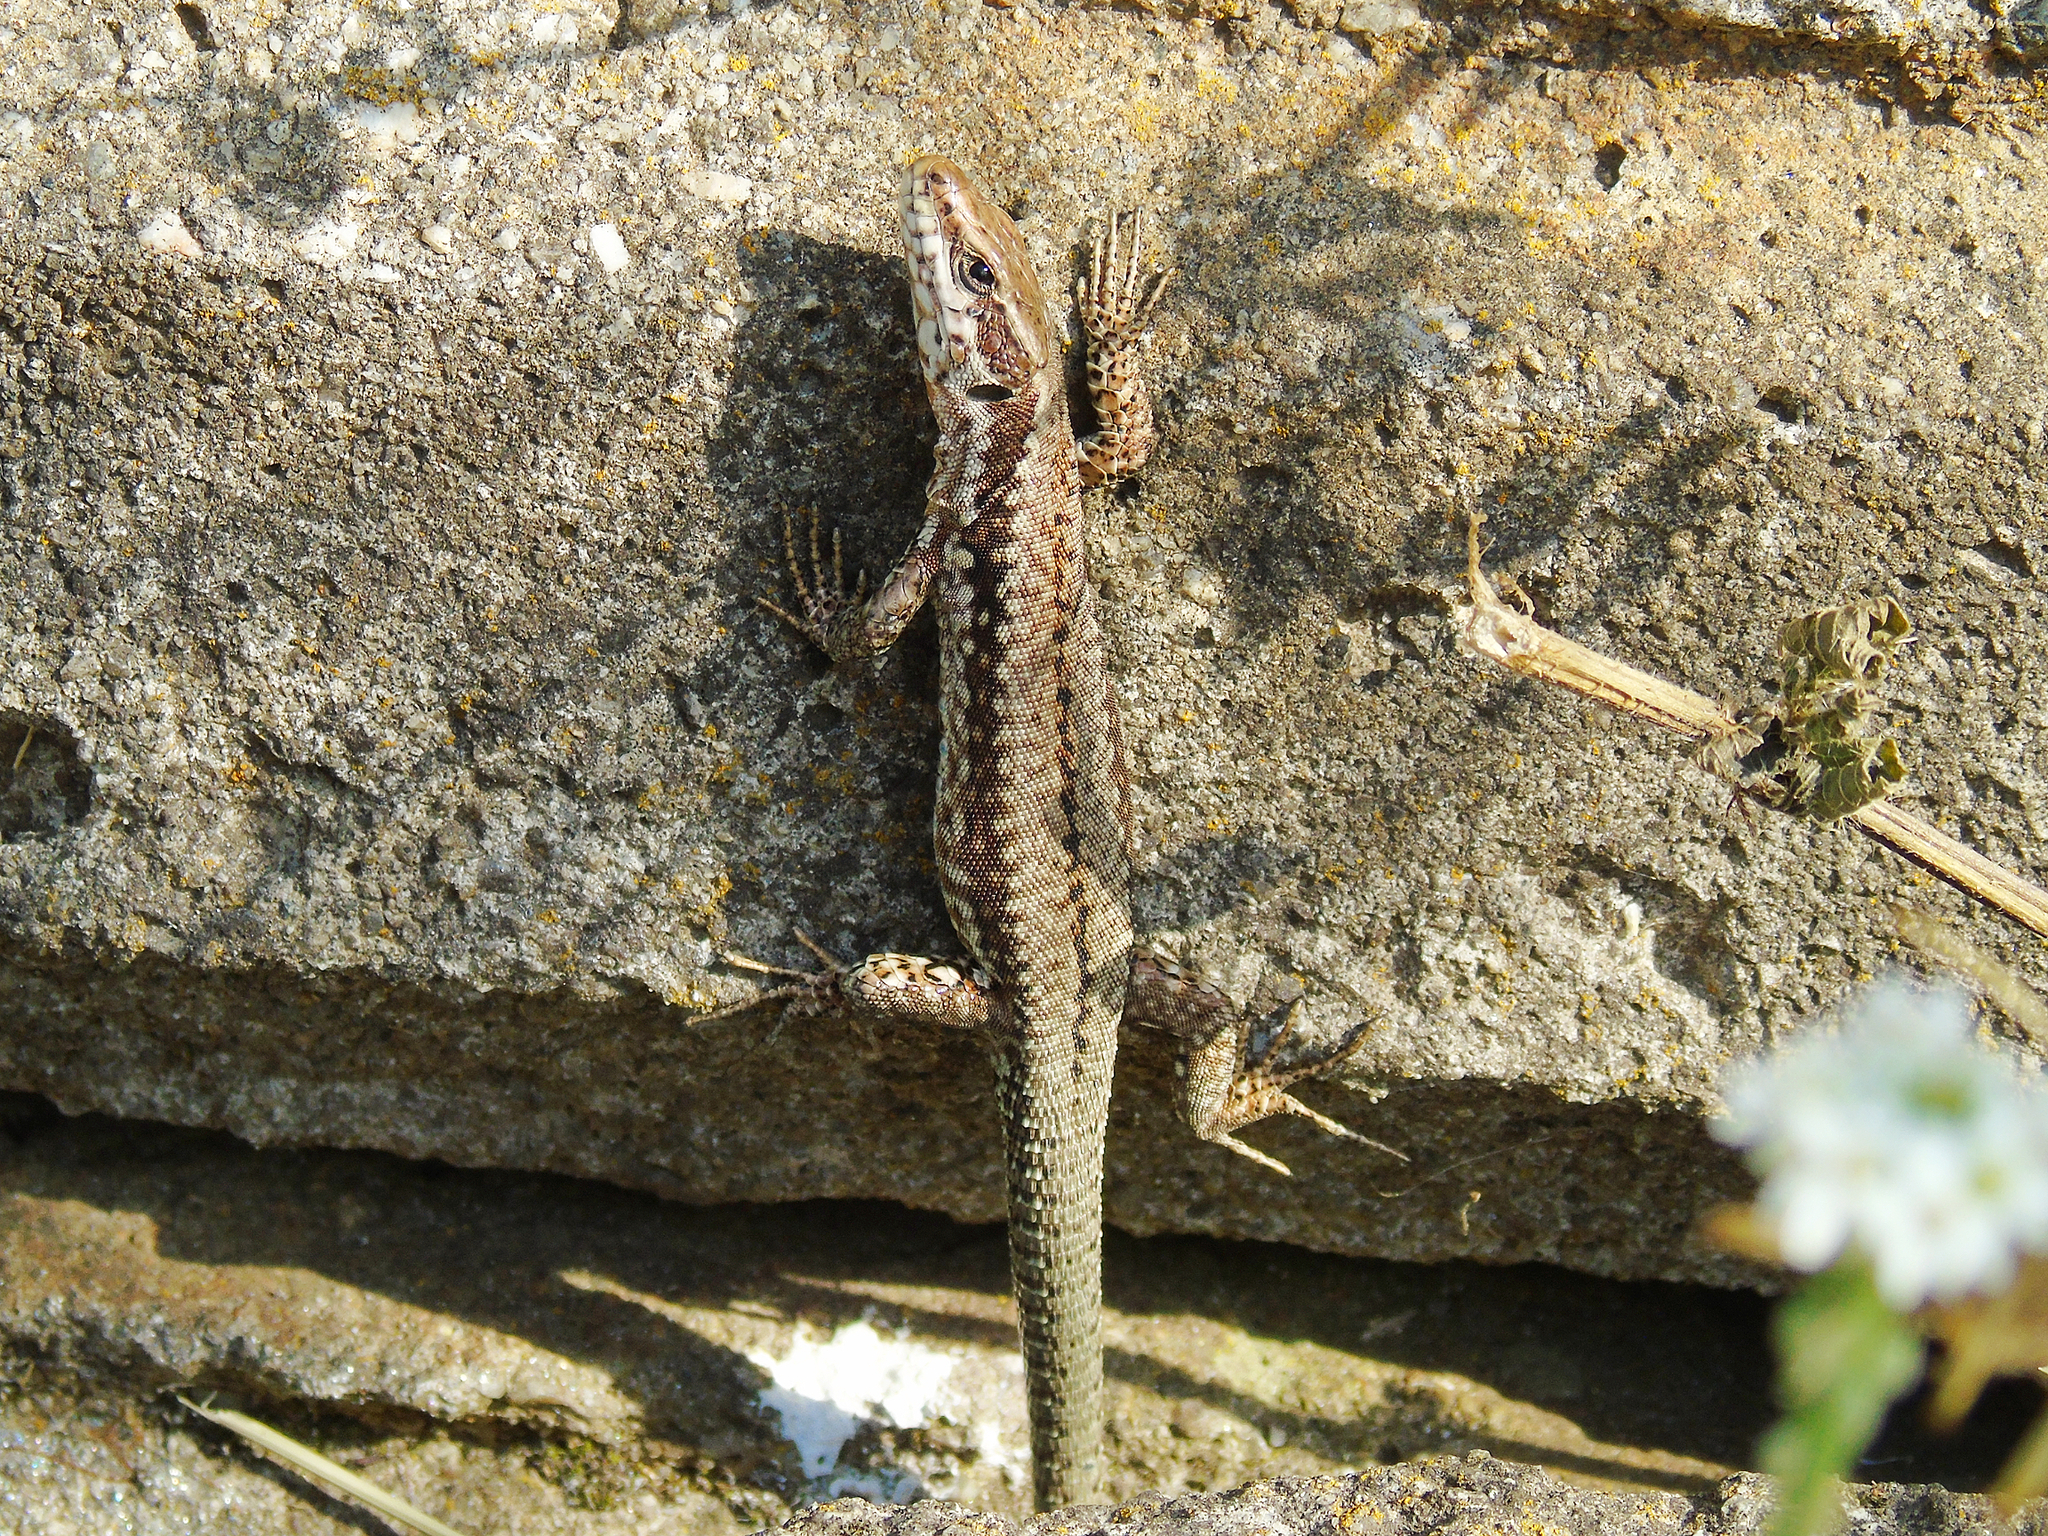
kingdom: Animalia
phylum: Chordata
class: Squamata
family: Lacertidae
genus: Podarcis
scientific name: Podarcis muralis
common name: Common wall lizard
